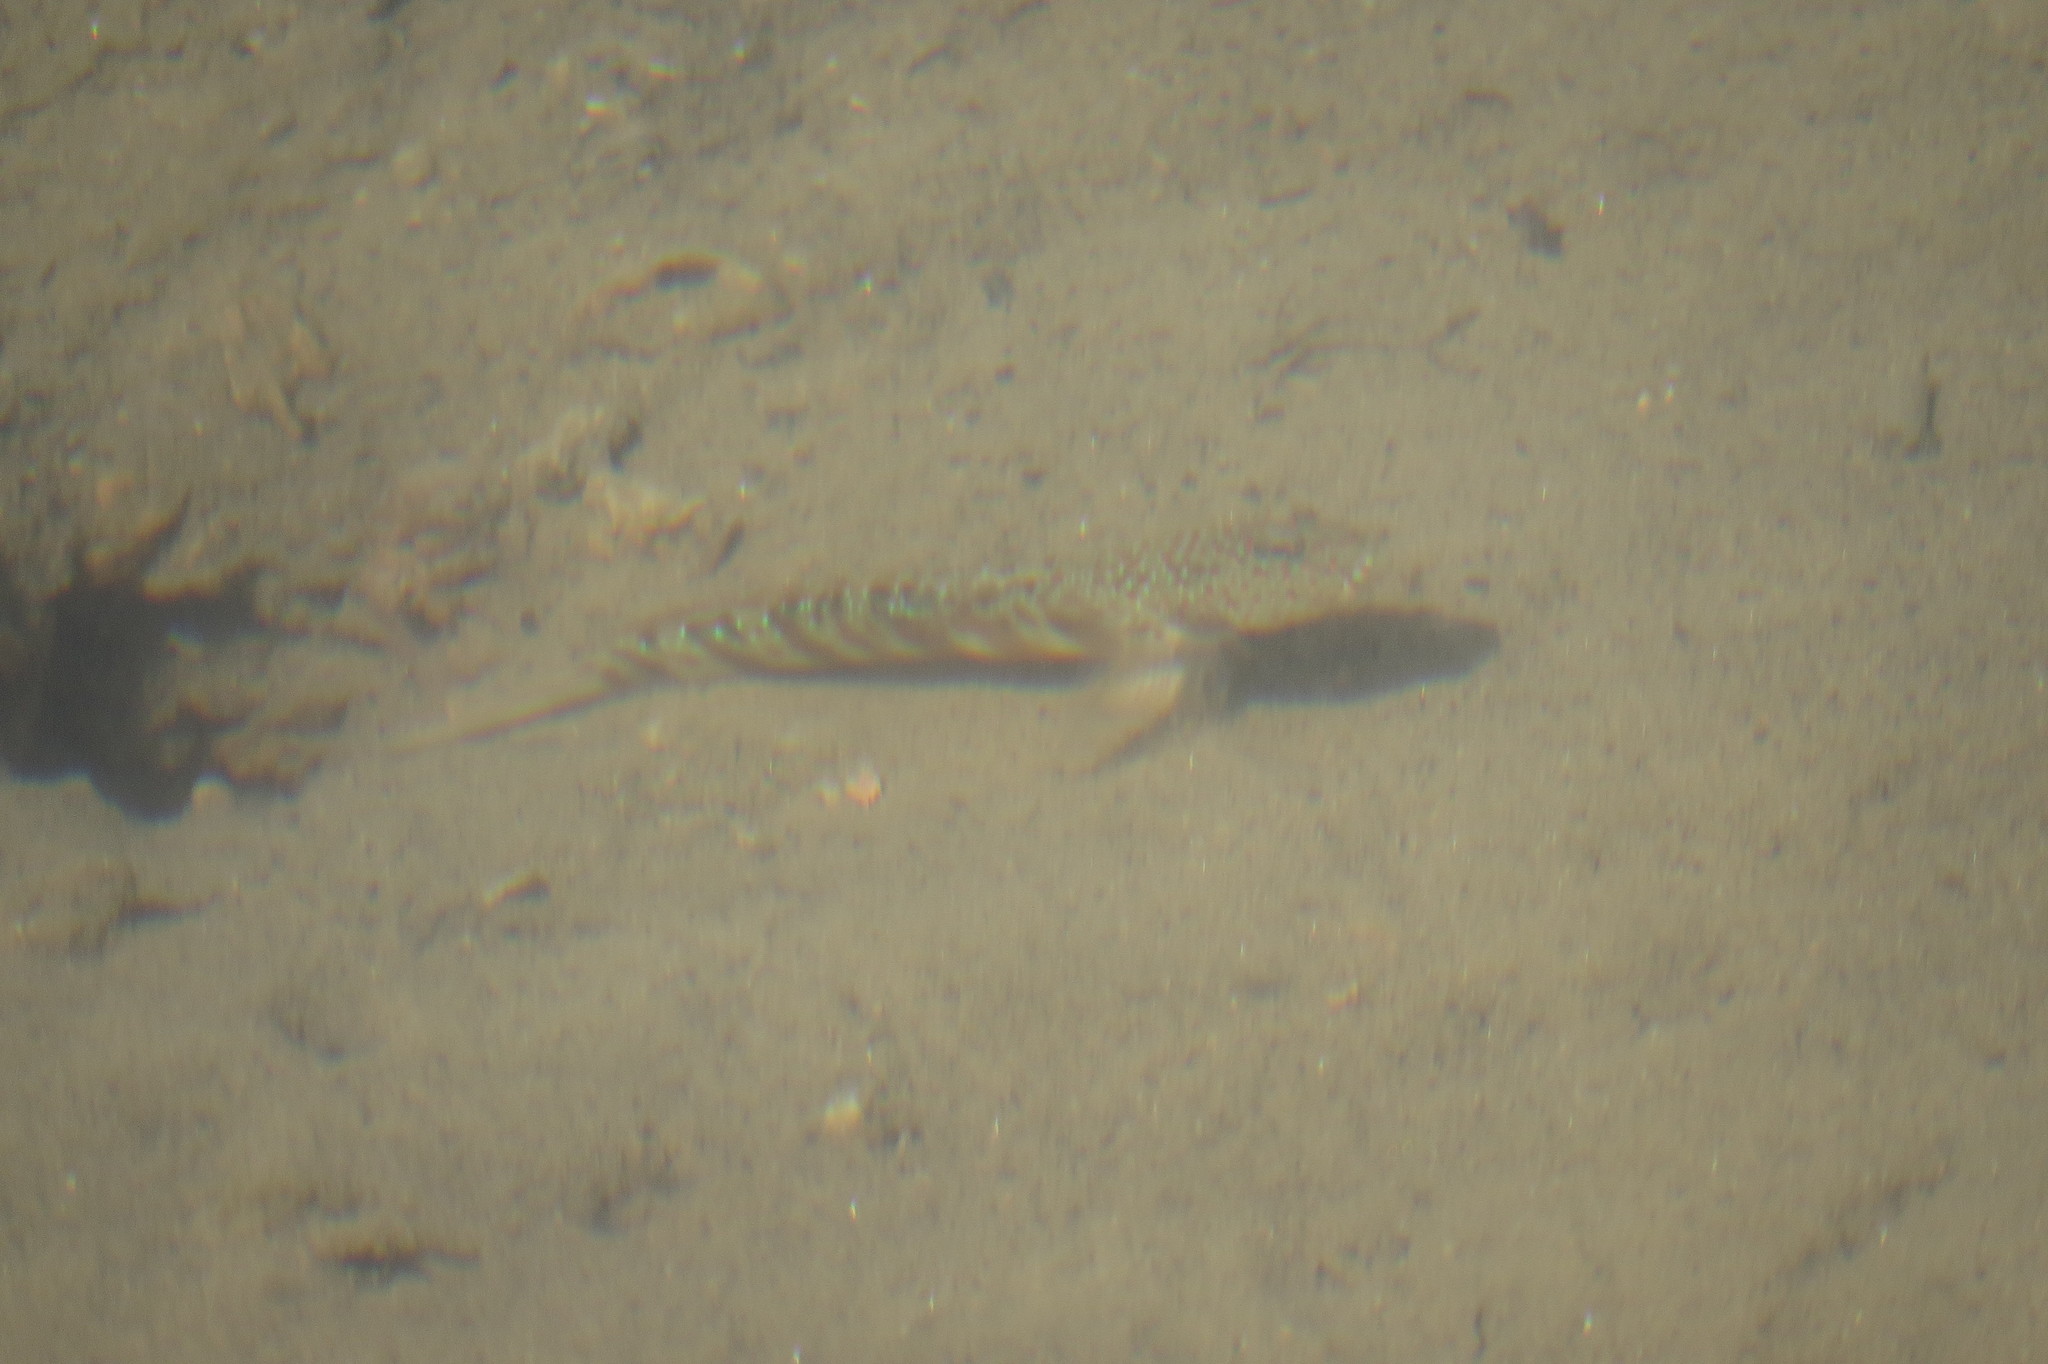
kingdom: Animalia
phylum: Chordata
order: Perciformes
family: Gobiidae
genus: Cryptocentrus
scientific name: Cryptocentrus leptocephalus
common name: Leptocephalus prawn-goby
